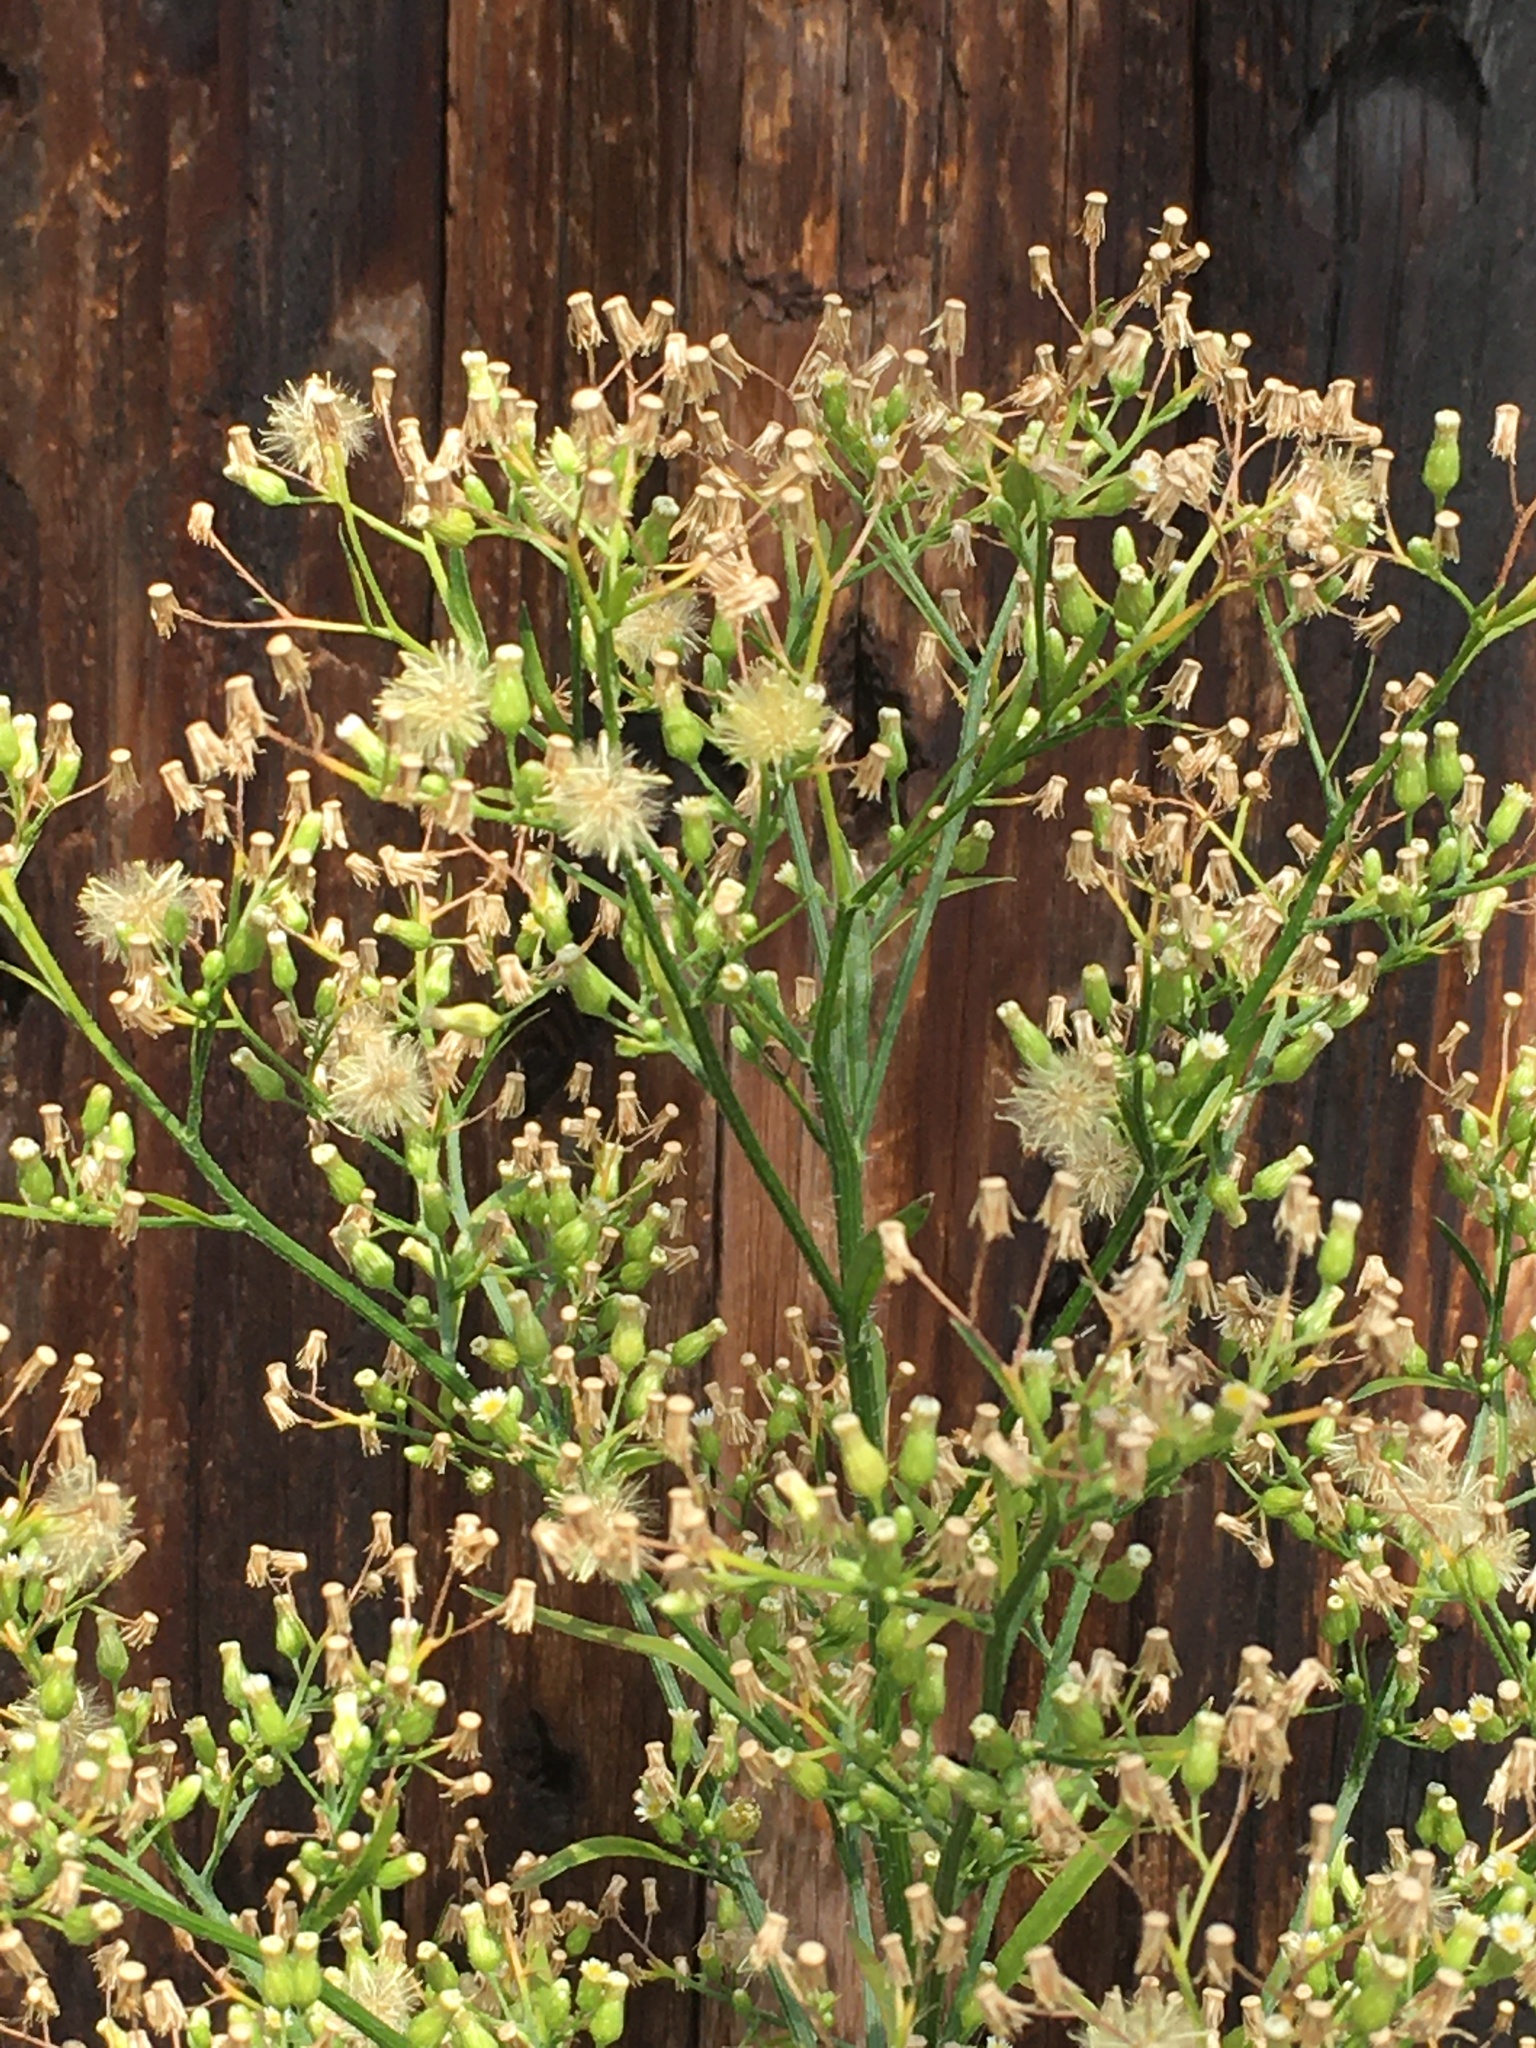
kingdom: Plantae
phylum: Tracheophyta
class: Magnoliopsida
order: Asterales
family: Asteraceae
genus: Erigeron
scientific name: Erigeron canadensis
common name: Canadian fleabane
